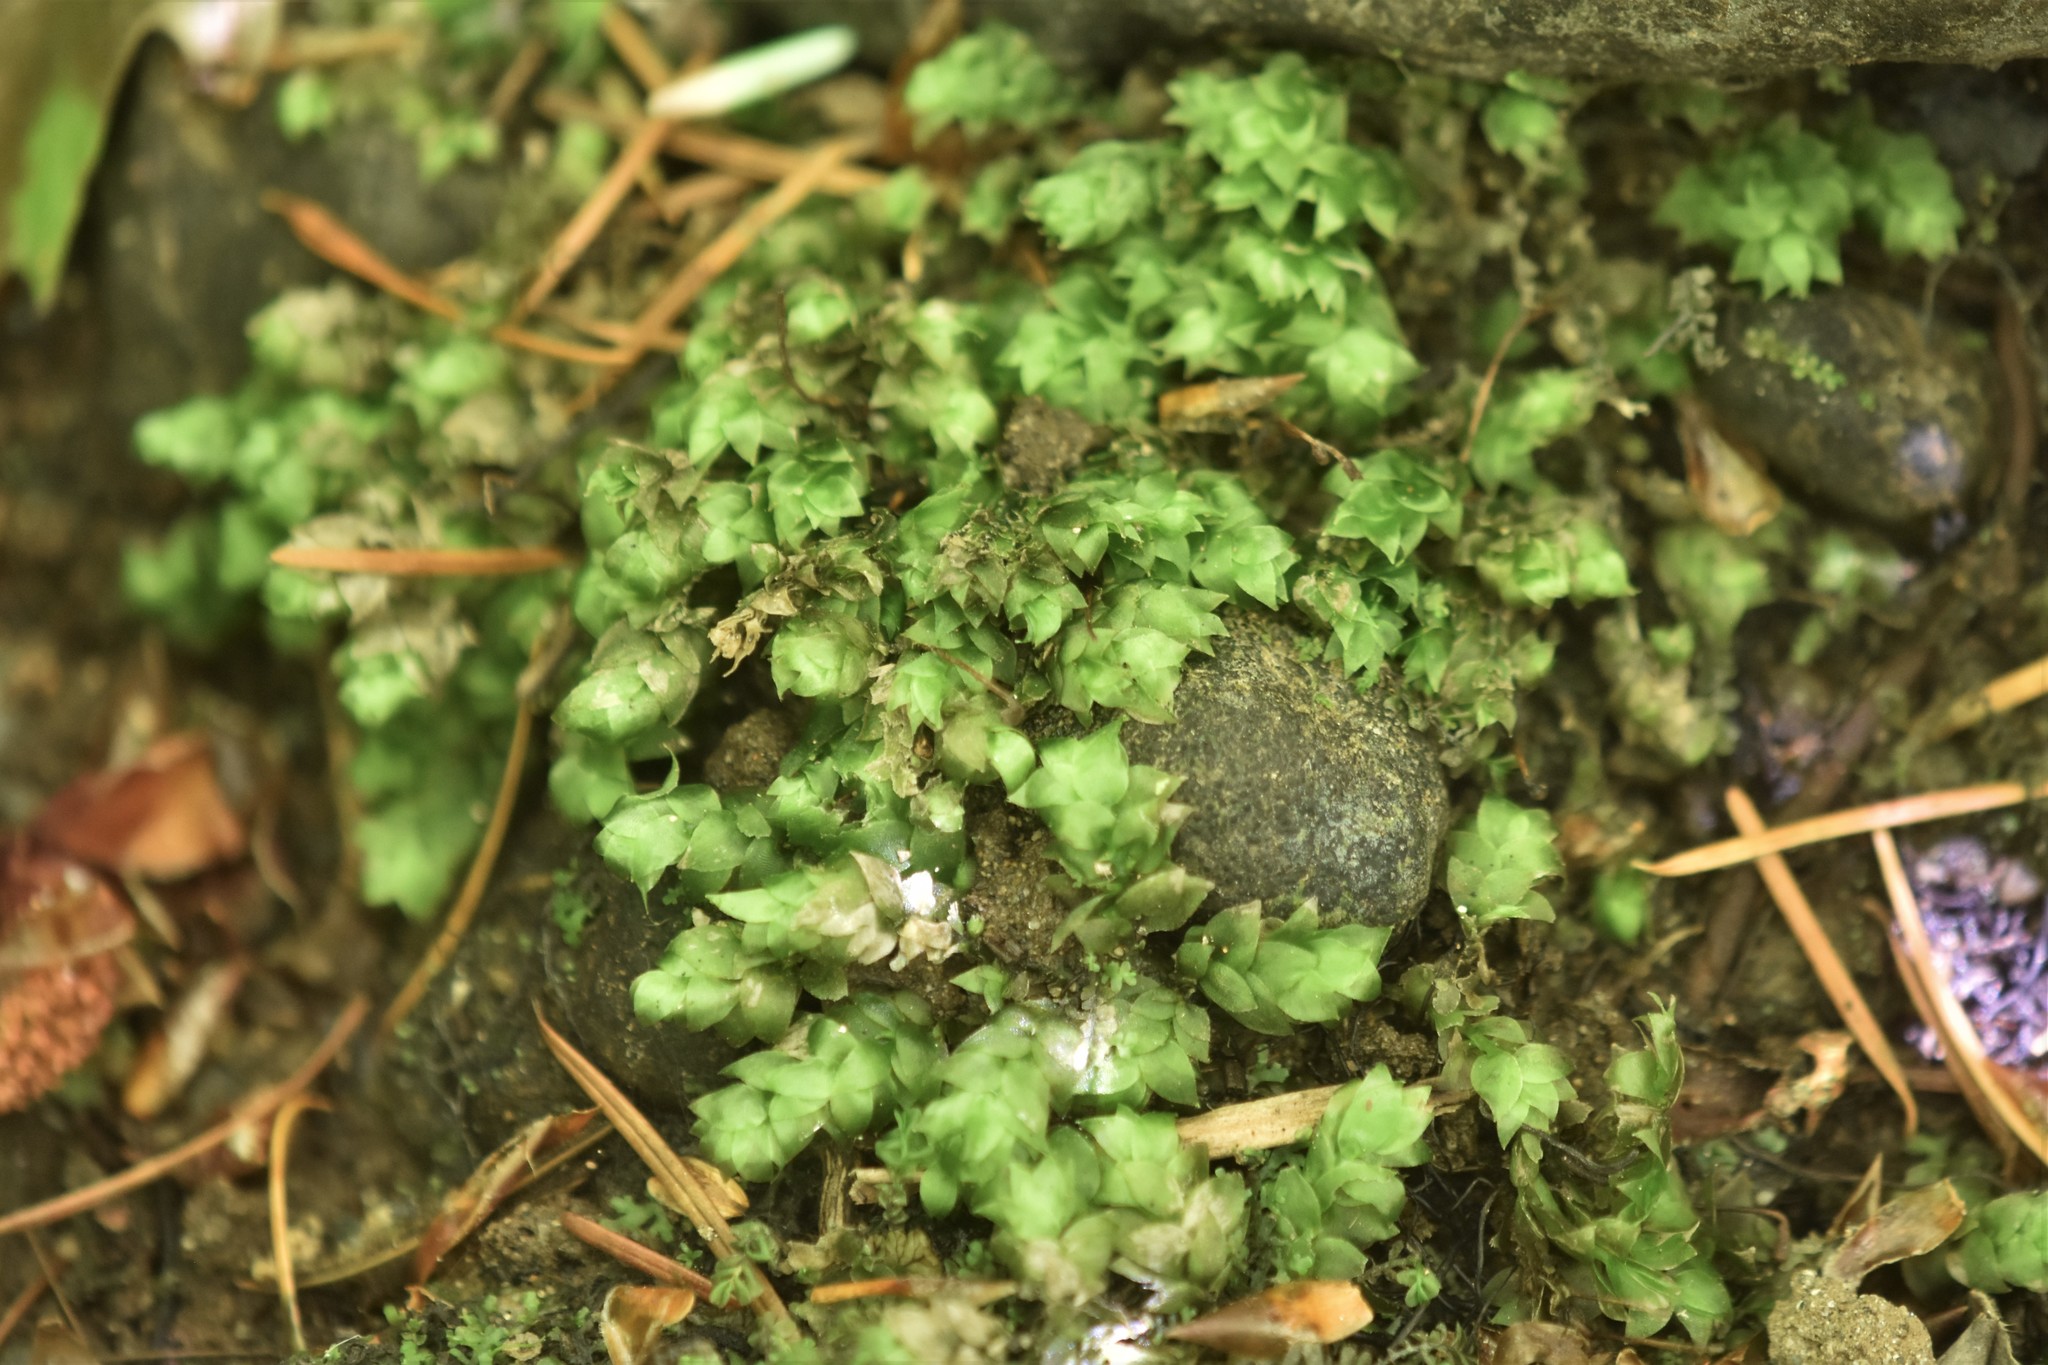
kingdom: Plantae
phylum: Bryophyta
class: Bryopsida
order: Hookeriales
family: Hookeriaceae
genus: Hookeria
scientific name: Hookeria acutifolia
